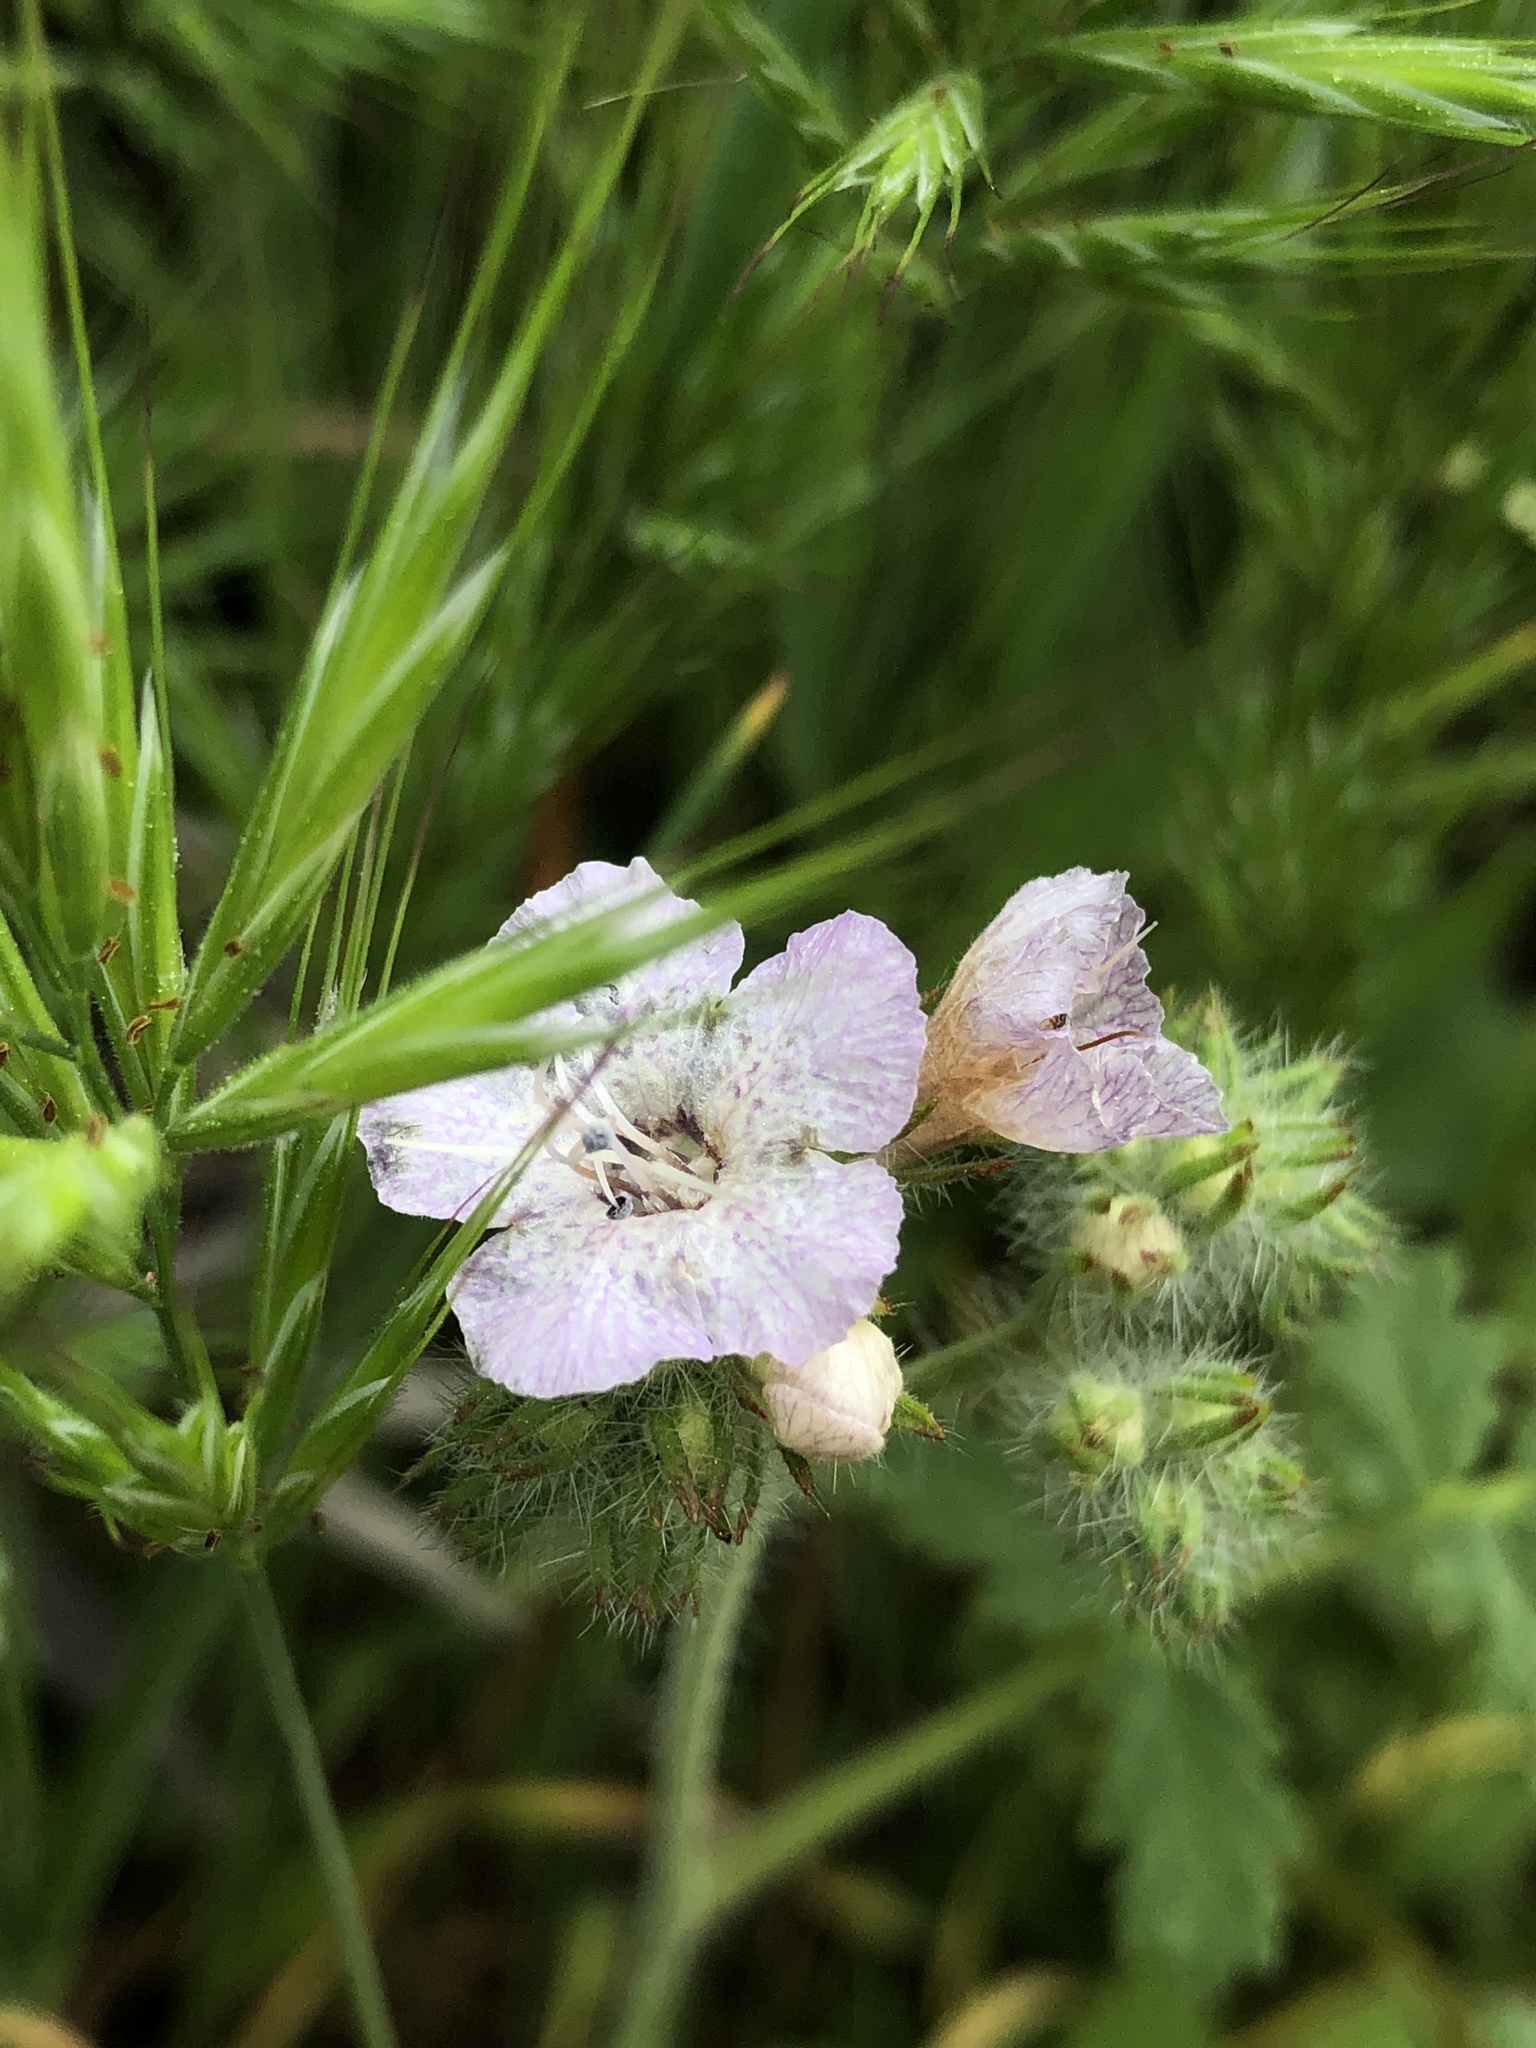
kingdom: Plantae
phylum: Tracheophyta
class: Magnoliopsida
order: Boraginales
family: Hydrophyllaceae
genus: Phacelia
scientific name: Phacelia cicutaria
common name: Caterpillar phacelia
